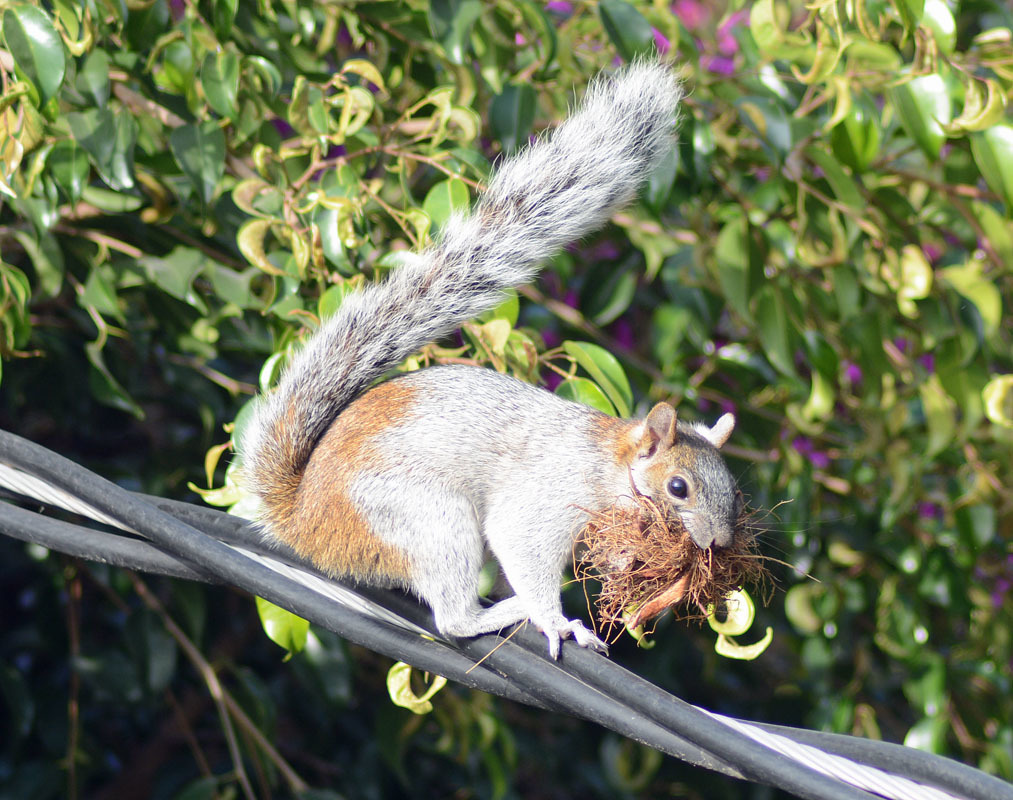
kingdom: Animalia
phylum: Chordata
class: Mammalia
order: Rodentia
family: Sciuridae
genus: Sciurus
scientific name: Sciurus aureogaster
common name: Red-bellied squirrel
